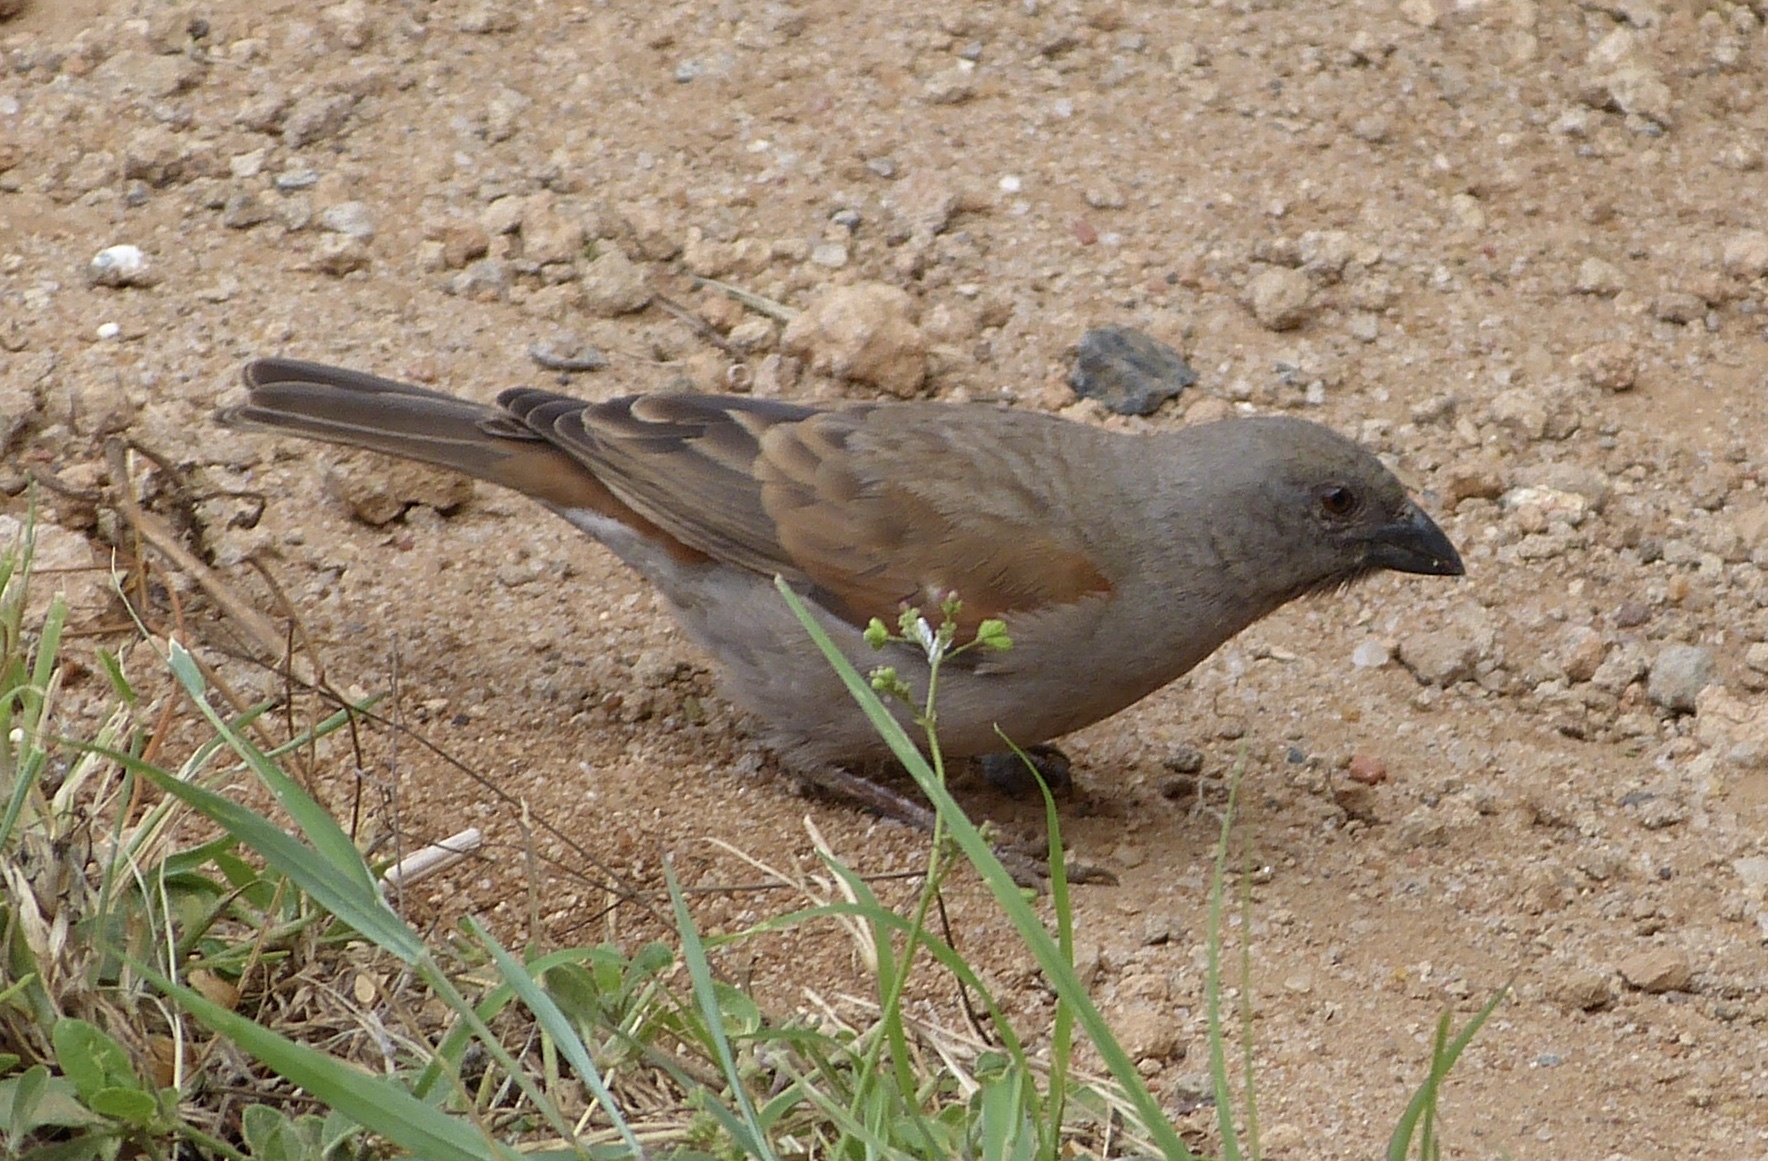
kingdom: Animalia
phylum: Chordata
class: Aves
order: Passeriformes
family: Passeridae
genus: Passer
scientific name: Passer gongonensis
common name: Parrot-billed sparrow
